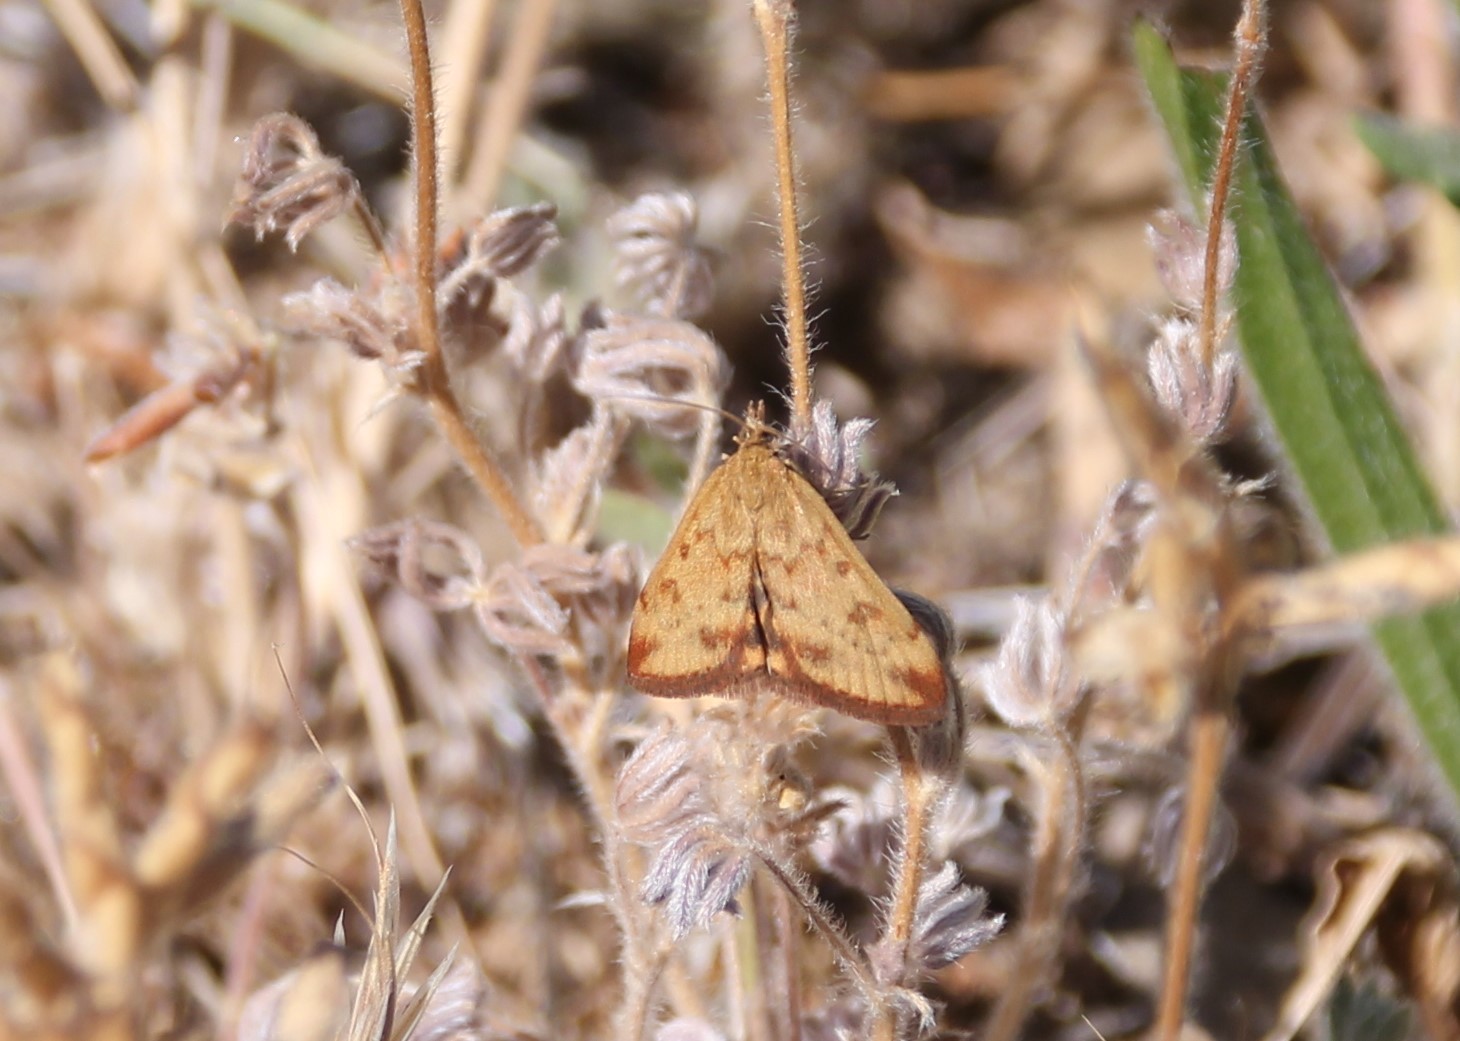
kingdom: Animalia
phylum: Arthropoda
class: Insecta
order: Lepidoptera
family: Crambidae
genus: Pyrausta
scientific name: Pyrausta subsequalis
